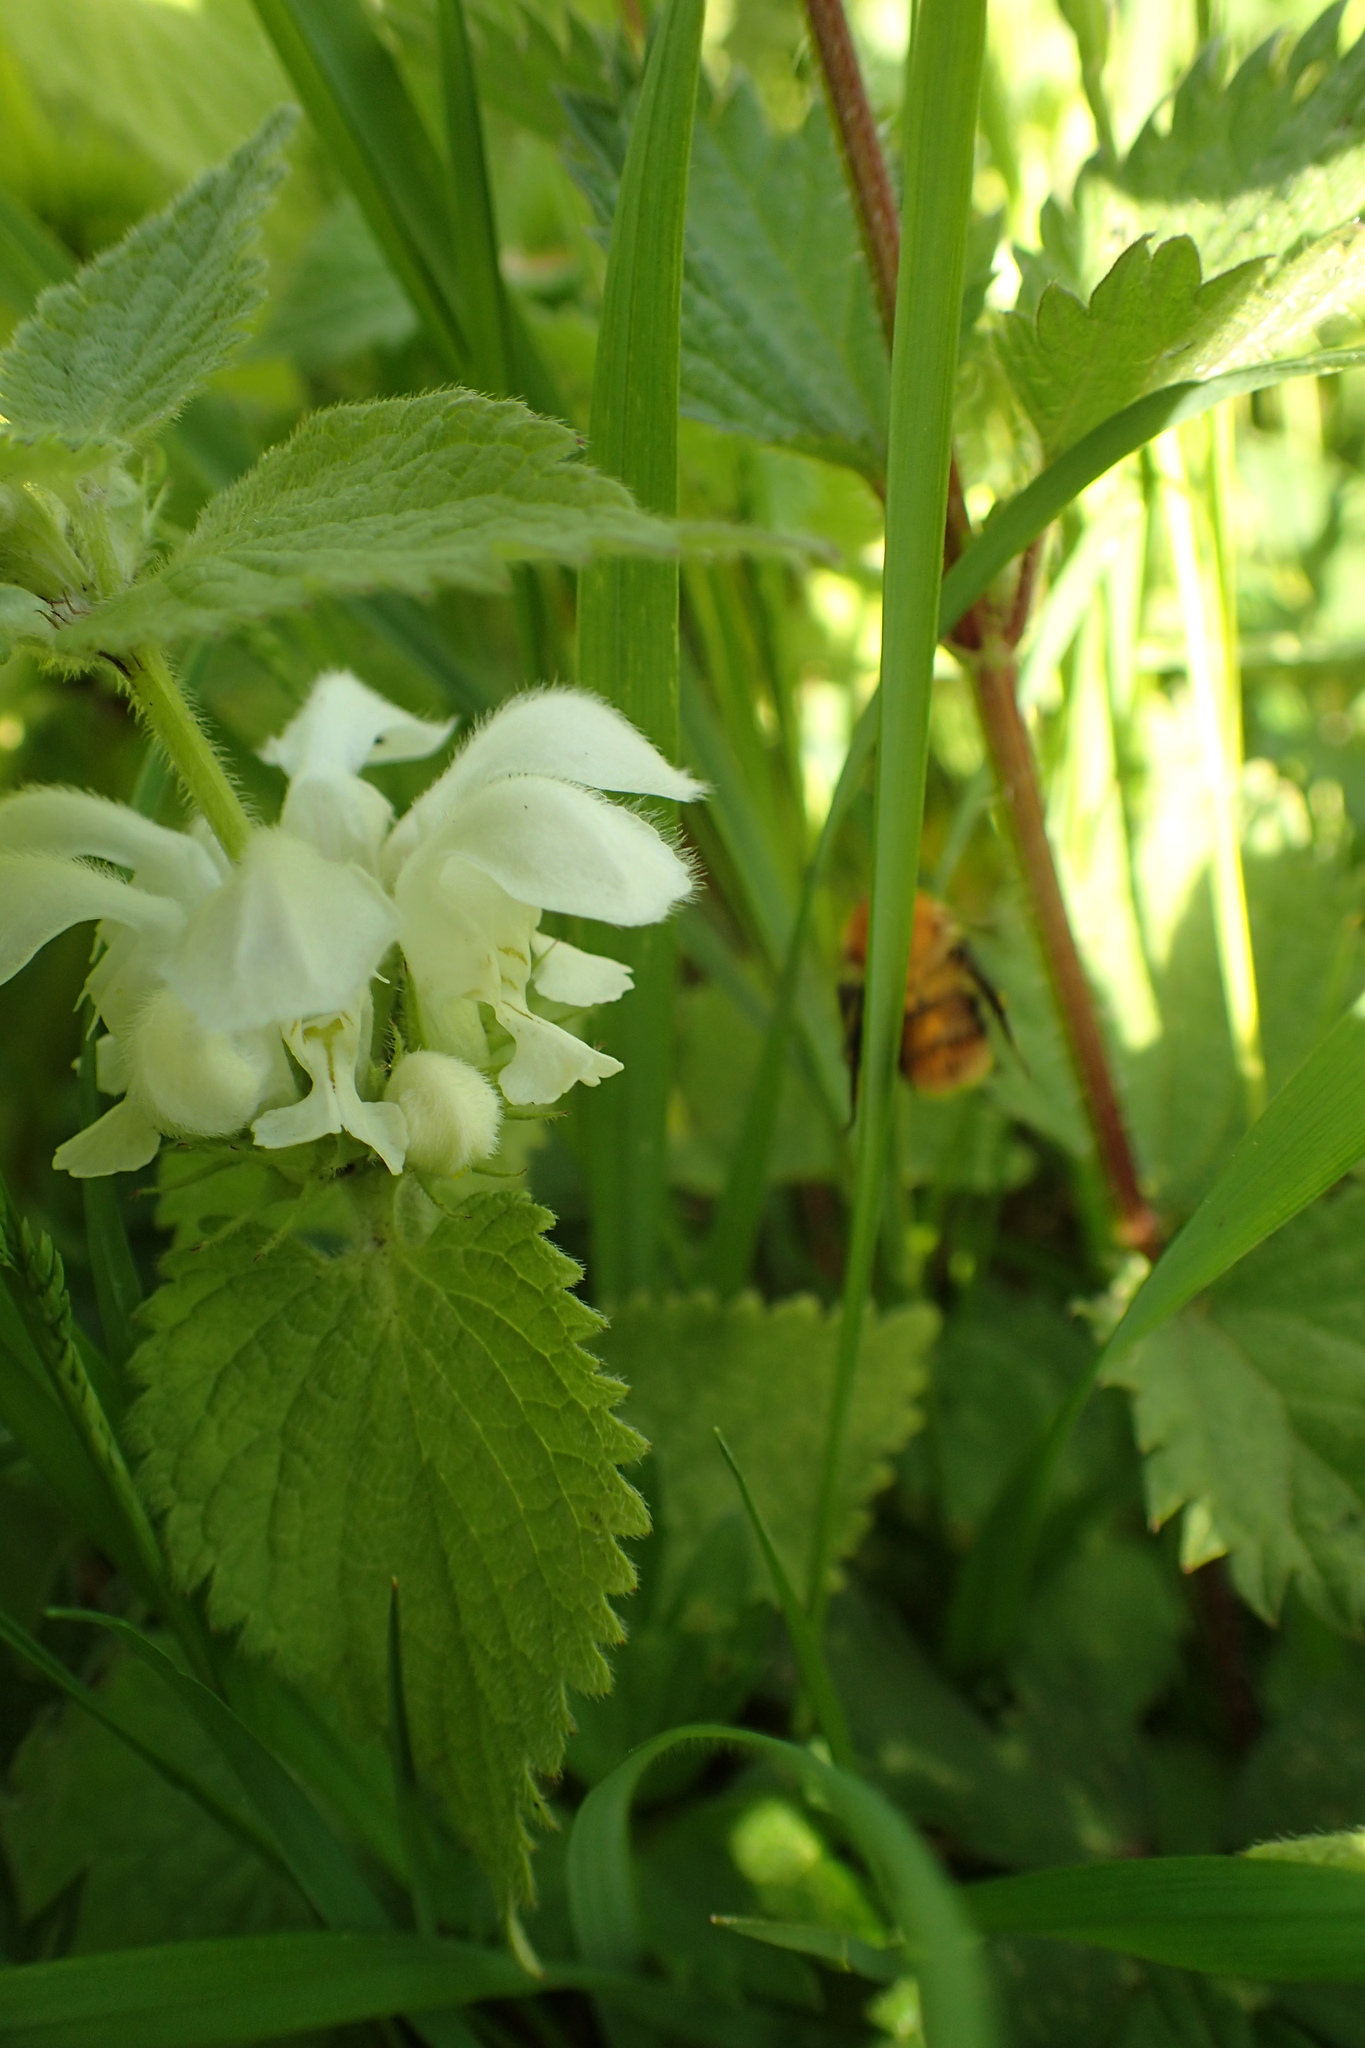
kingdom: Animalia
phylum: Arthropoda
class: Insecta
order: Hymenoptera
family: Apidae
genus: Bombus
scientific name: Bombus pascuorum
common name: Common carder bee
